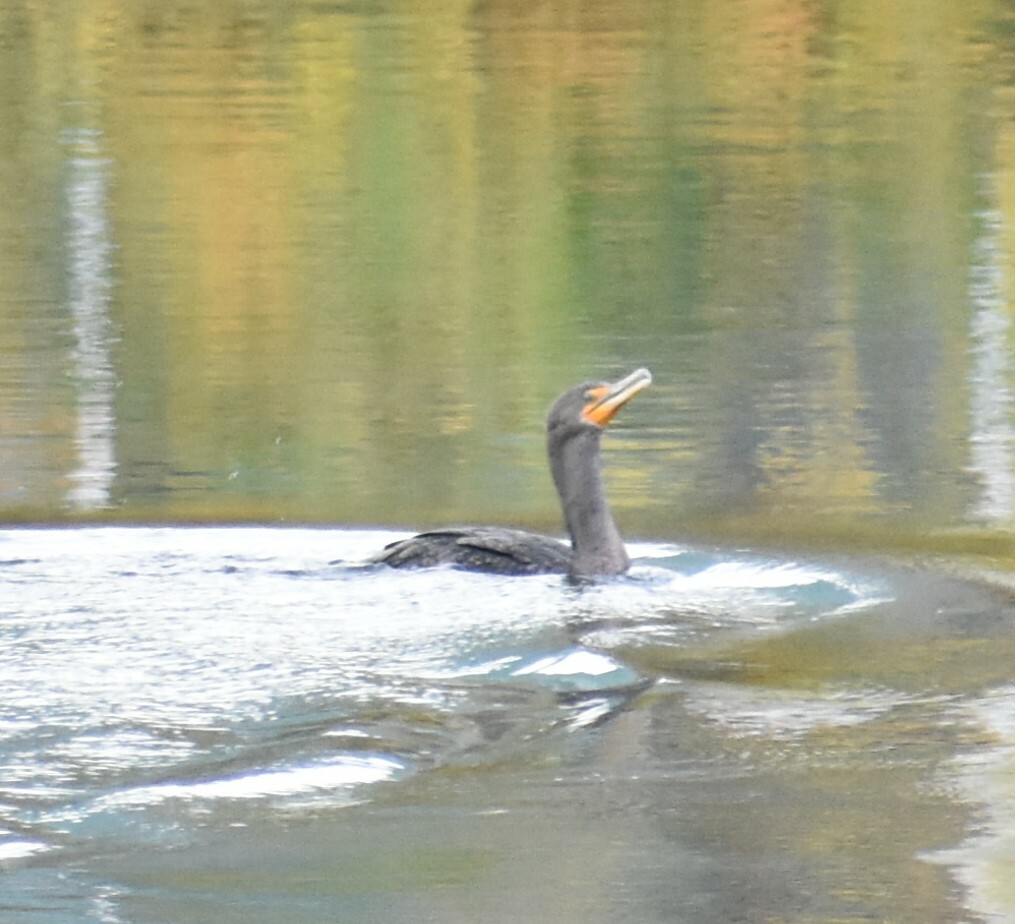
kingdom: Animalia
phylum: Chordata
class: Aves
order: Suliformes
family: Phalacrocoracidae
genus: Phalacrocorax
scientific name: Phalacrocorax auritus
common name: Double-crested cormorant
